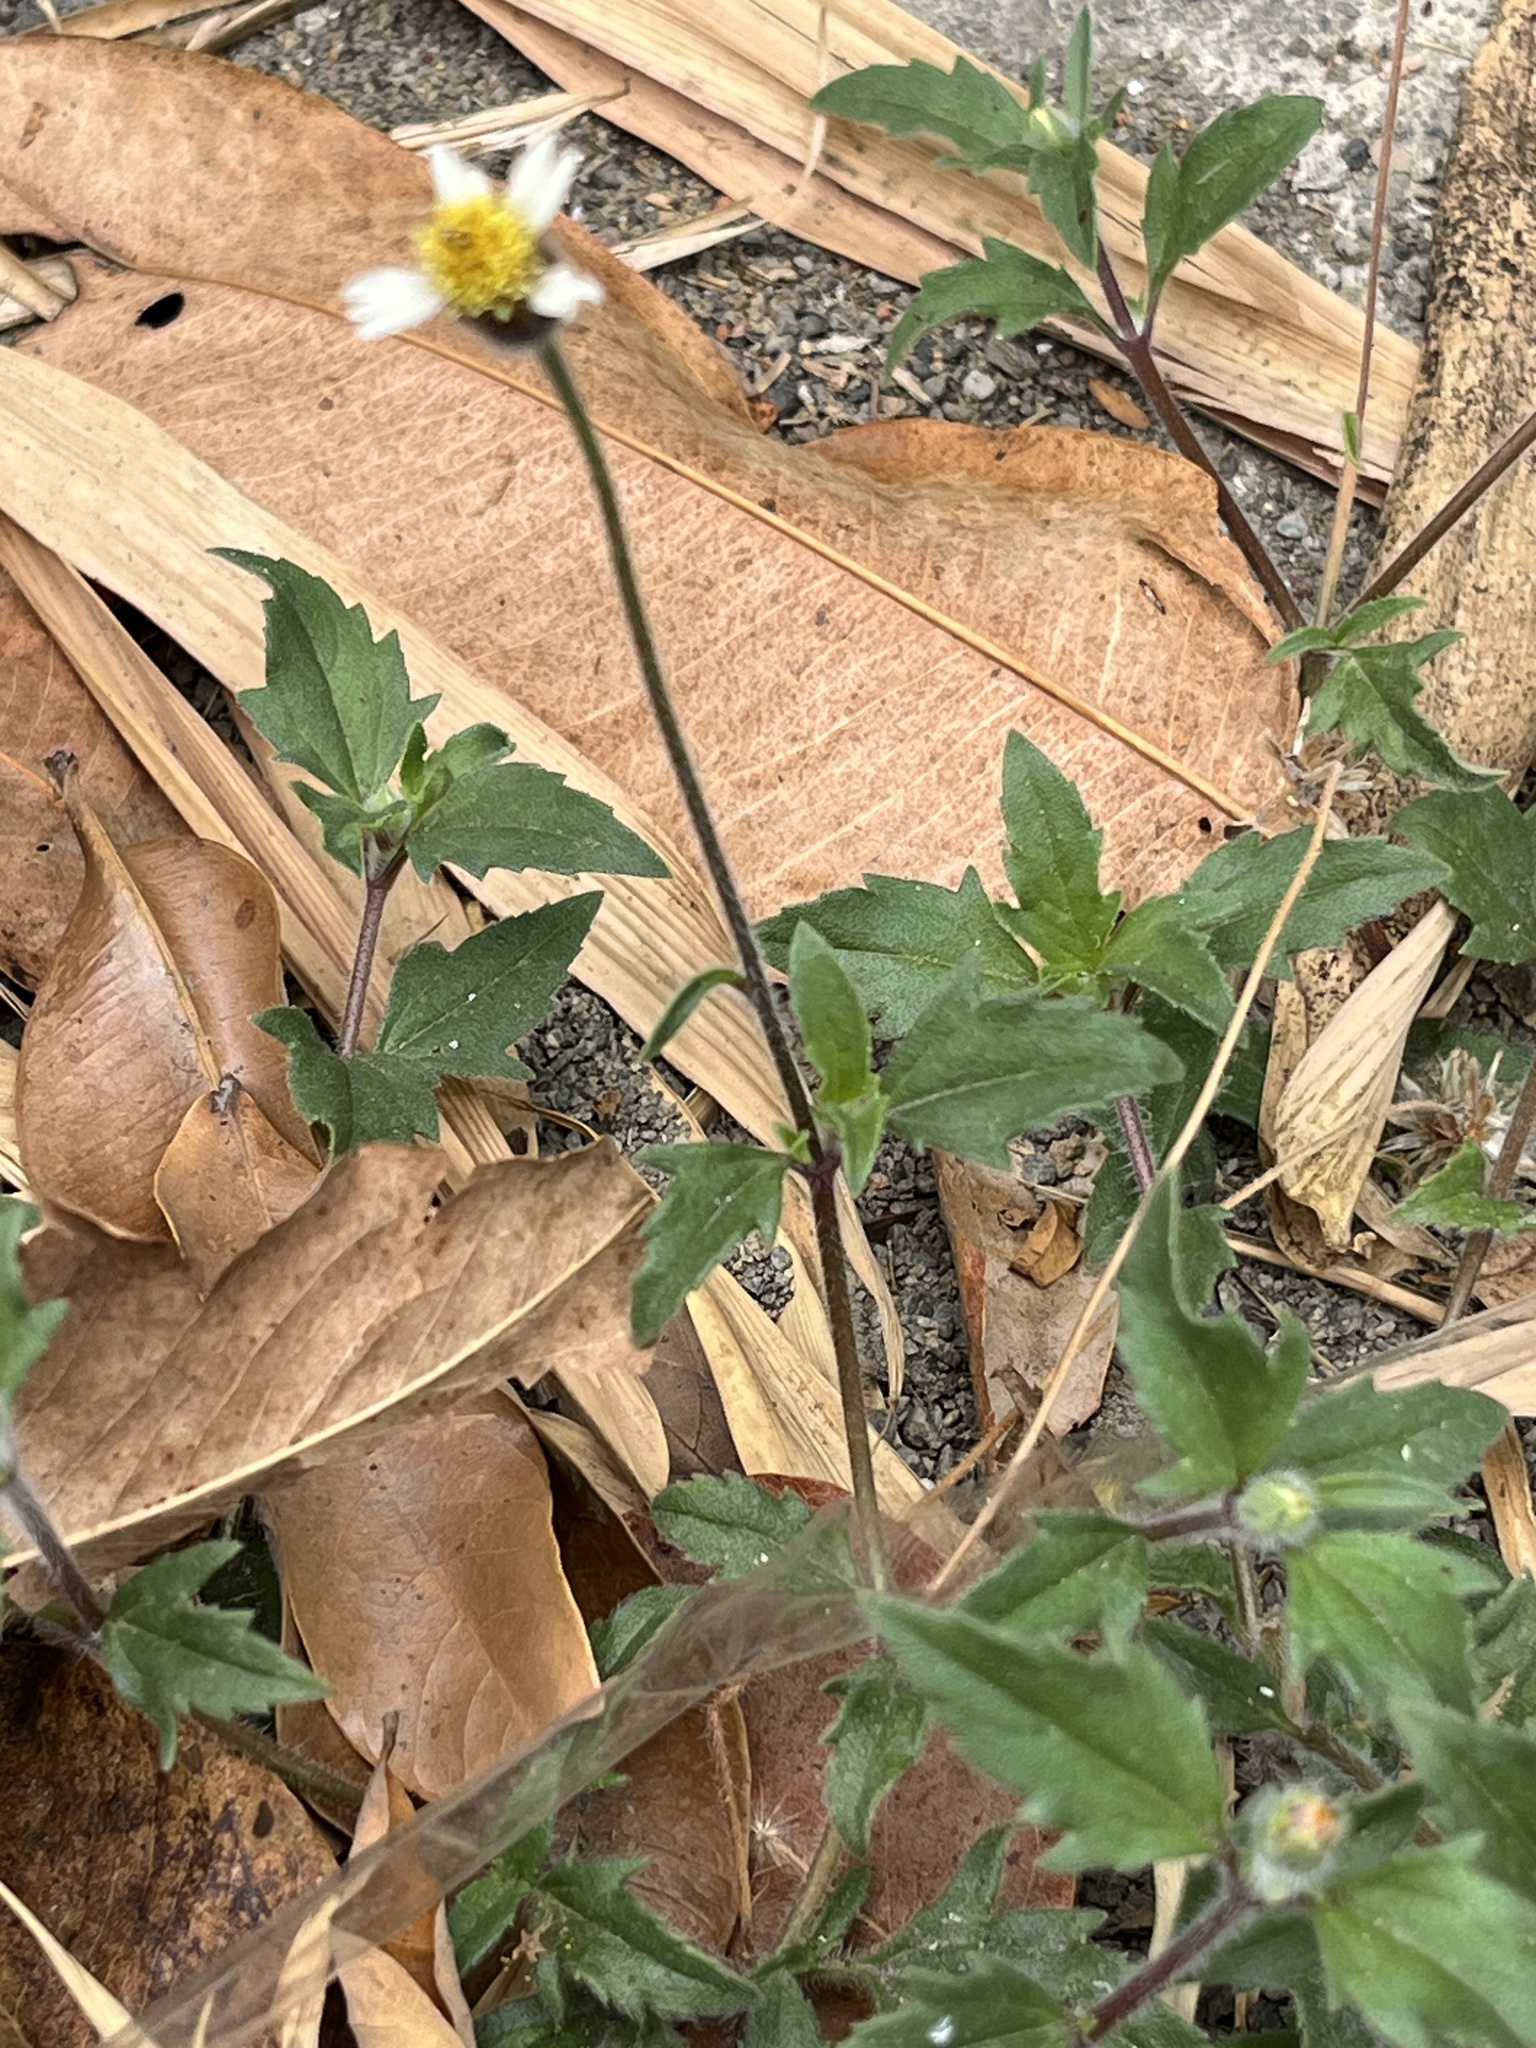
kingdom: Plantae
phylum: Tracheophyta
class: Magnoliopsida
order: Asterales
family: Asteraceae
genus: Tridax
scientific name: Tridax procumbens
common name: Coatbuttons
